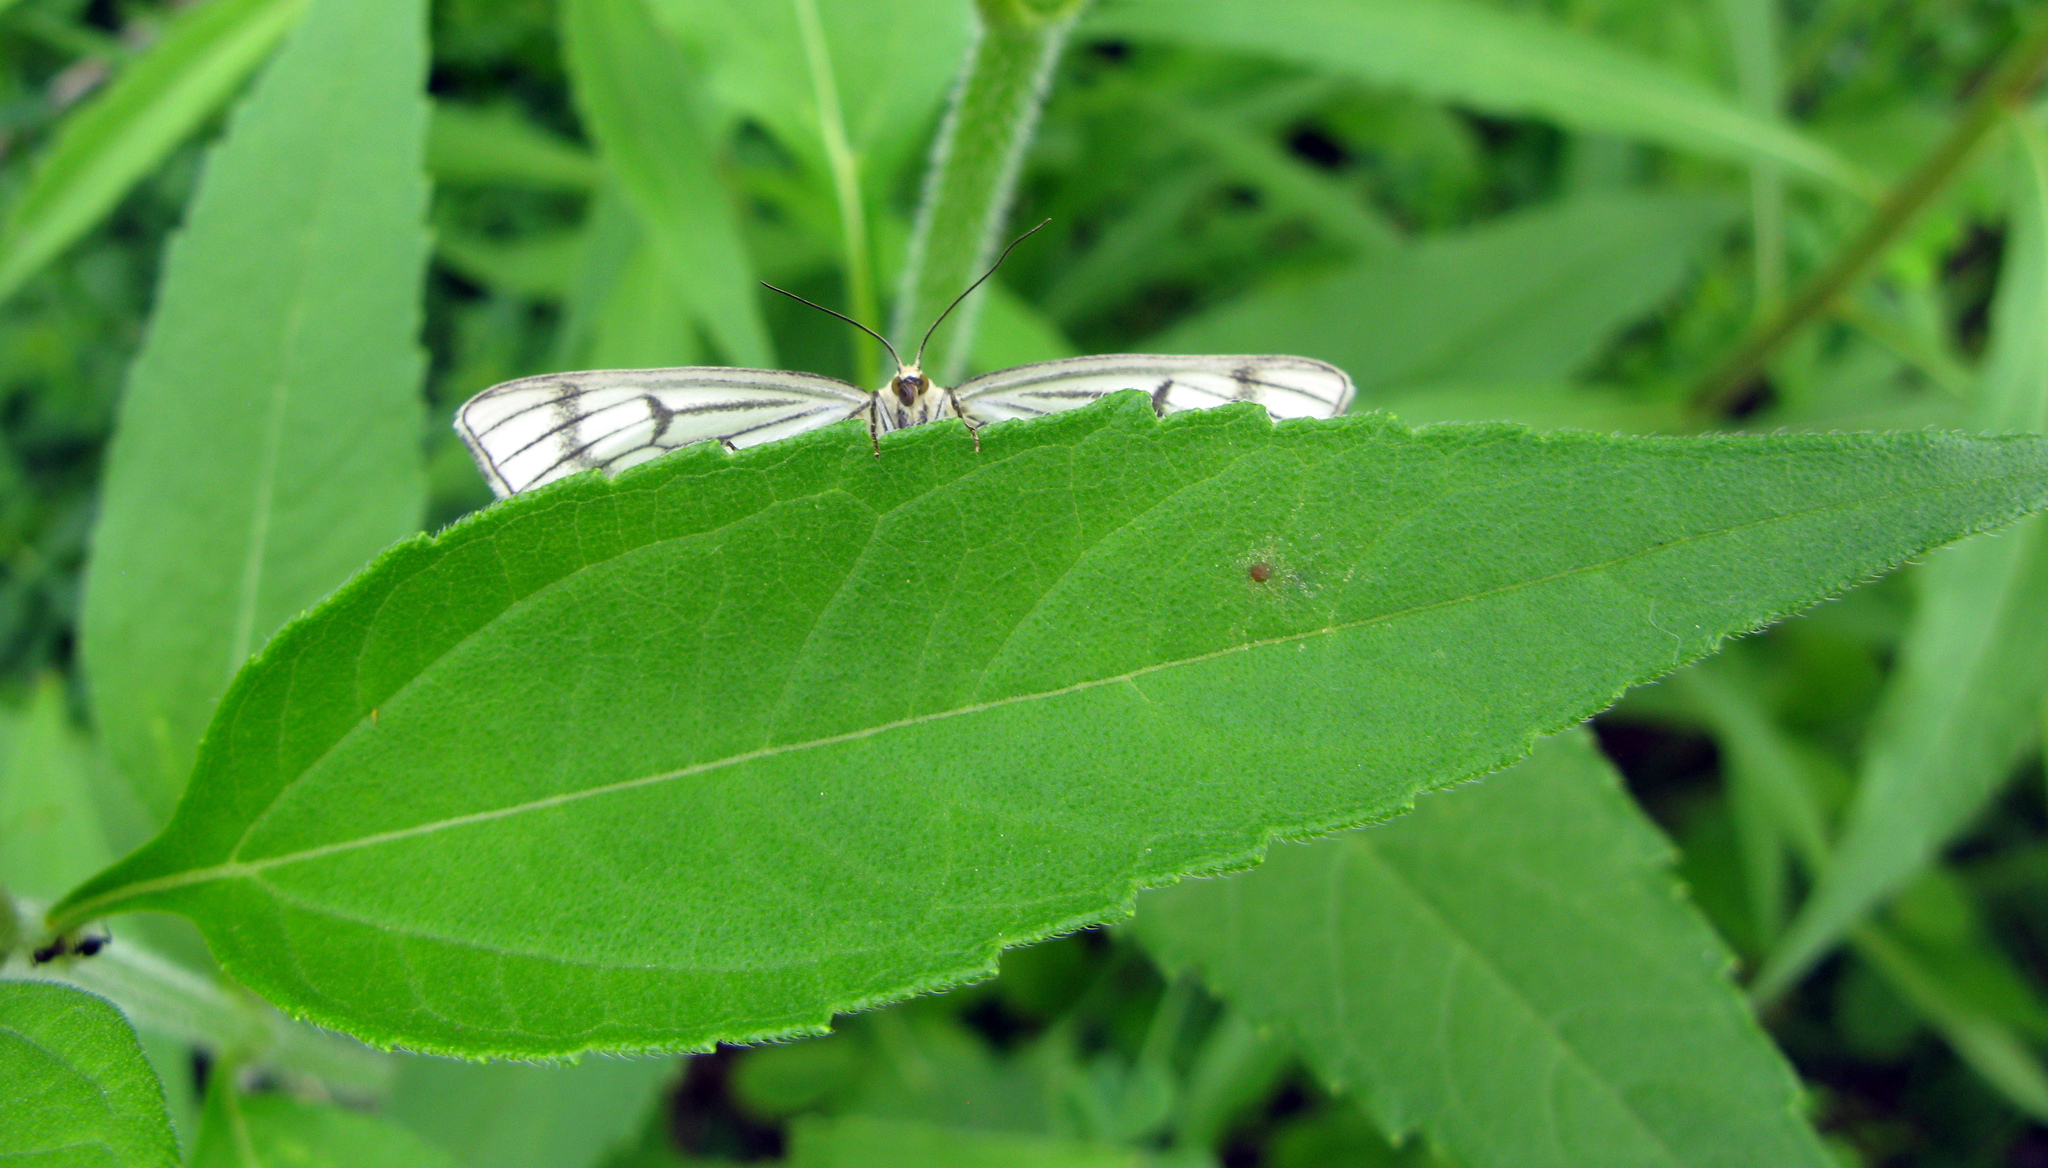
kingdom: Animalia
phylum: Arthropoda
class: Insecta
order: Lepidoptera
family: Geometridae
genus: Siona
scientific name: Siona lineata
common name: Black-veined moth
